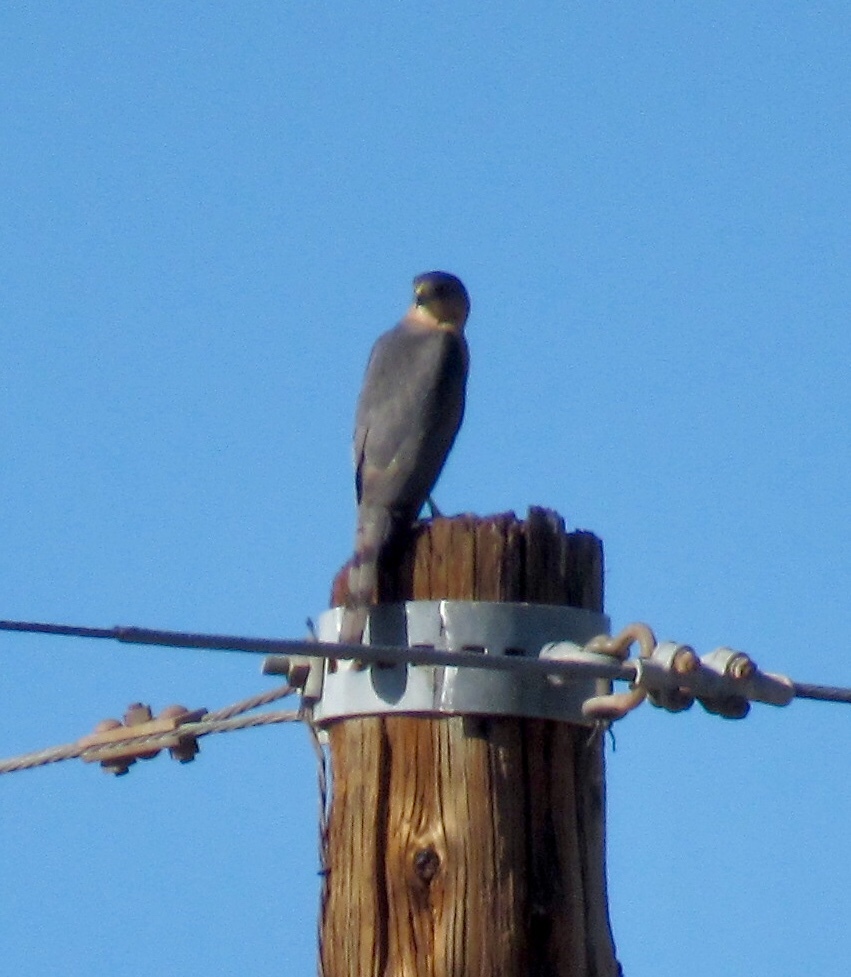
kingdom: Animalia
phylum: Chordata
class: Aves
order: Accipitriformes
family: Accipitridae
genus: Accipiter
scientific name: Accipiter cooperii
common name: Cooper's hawk
